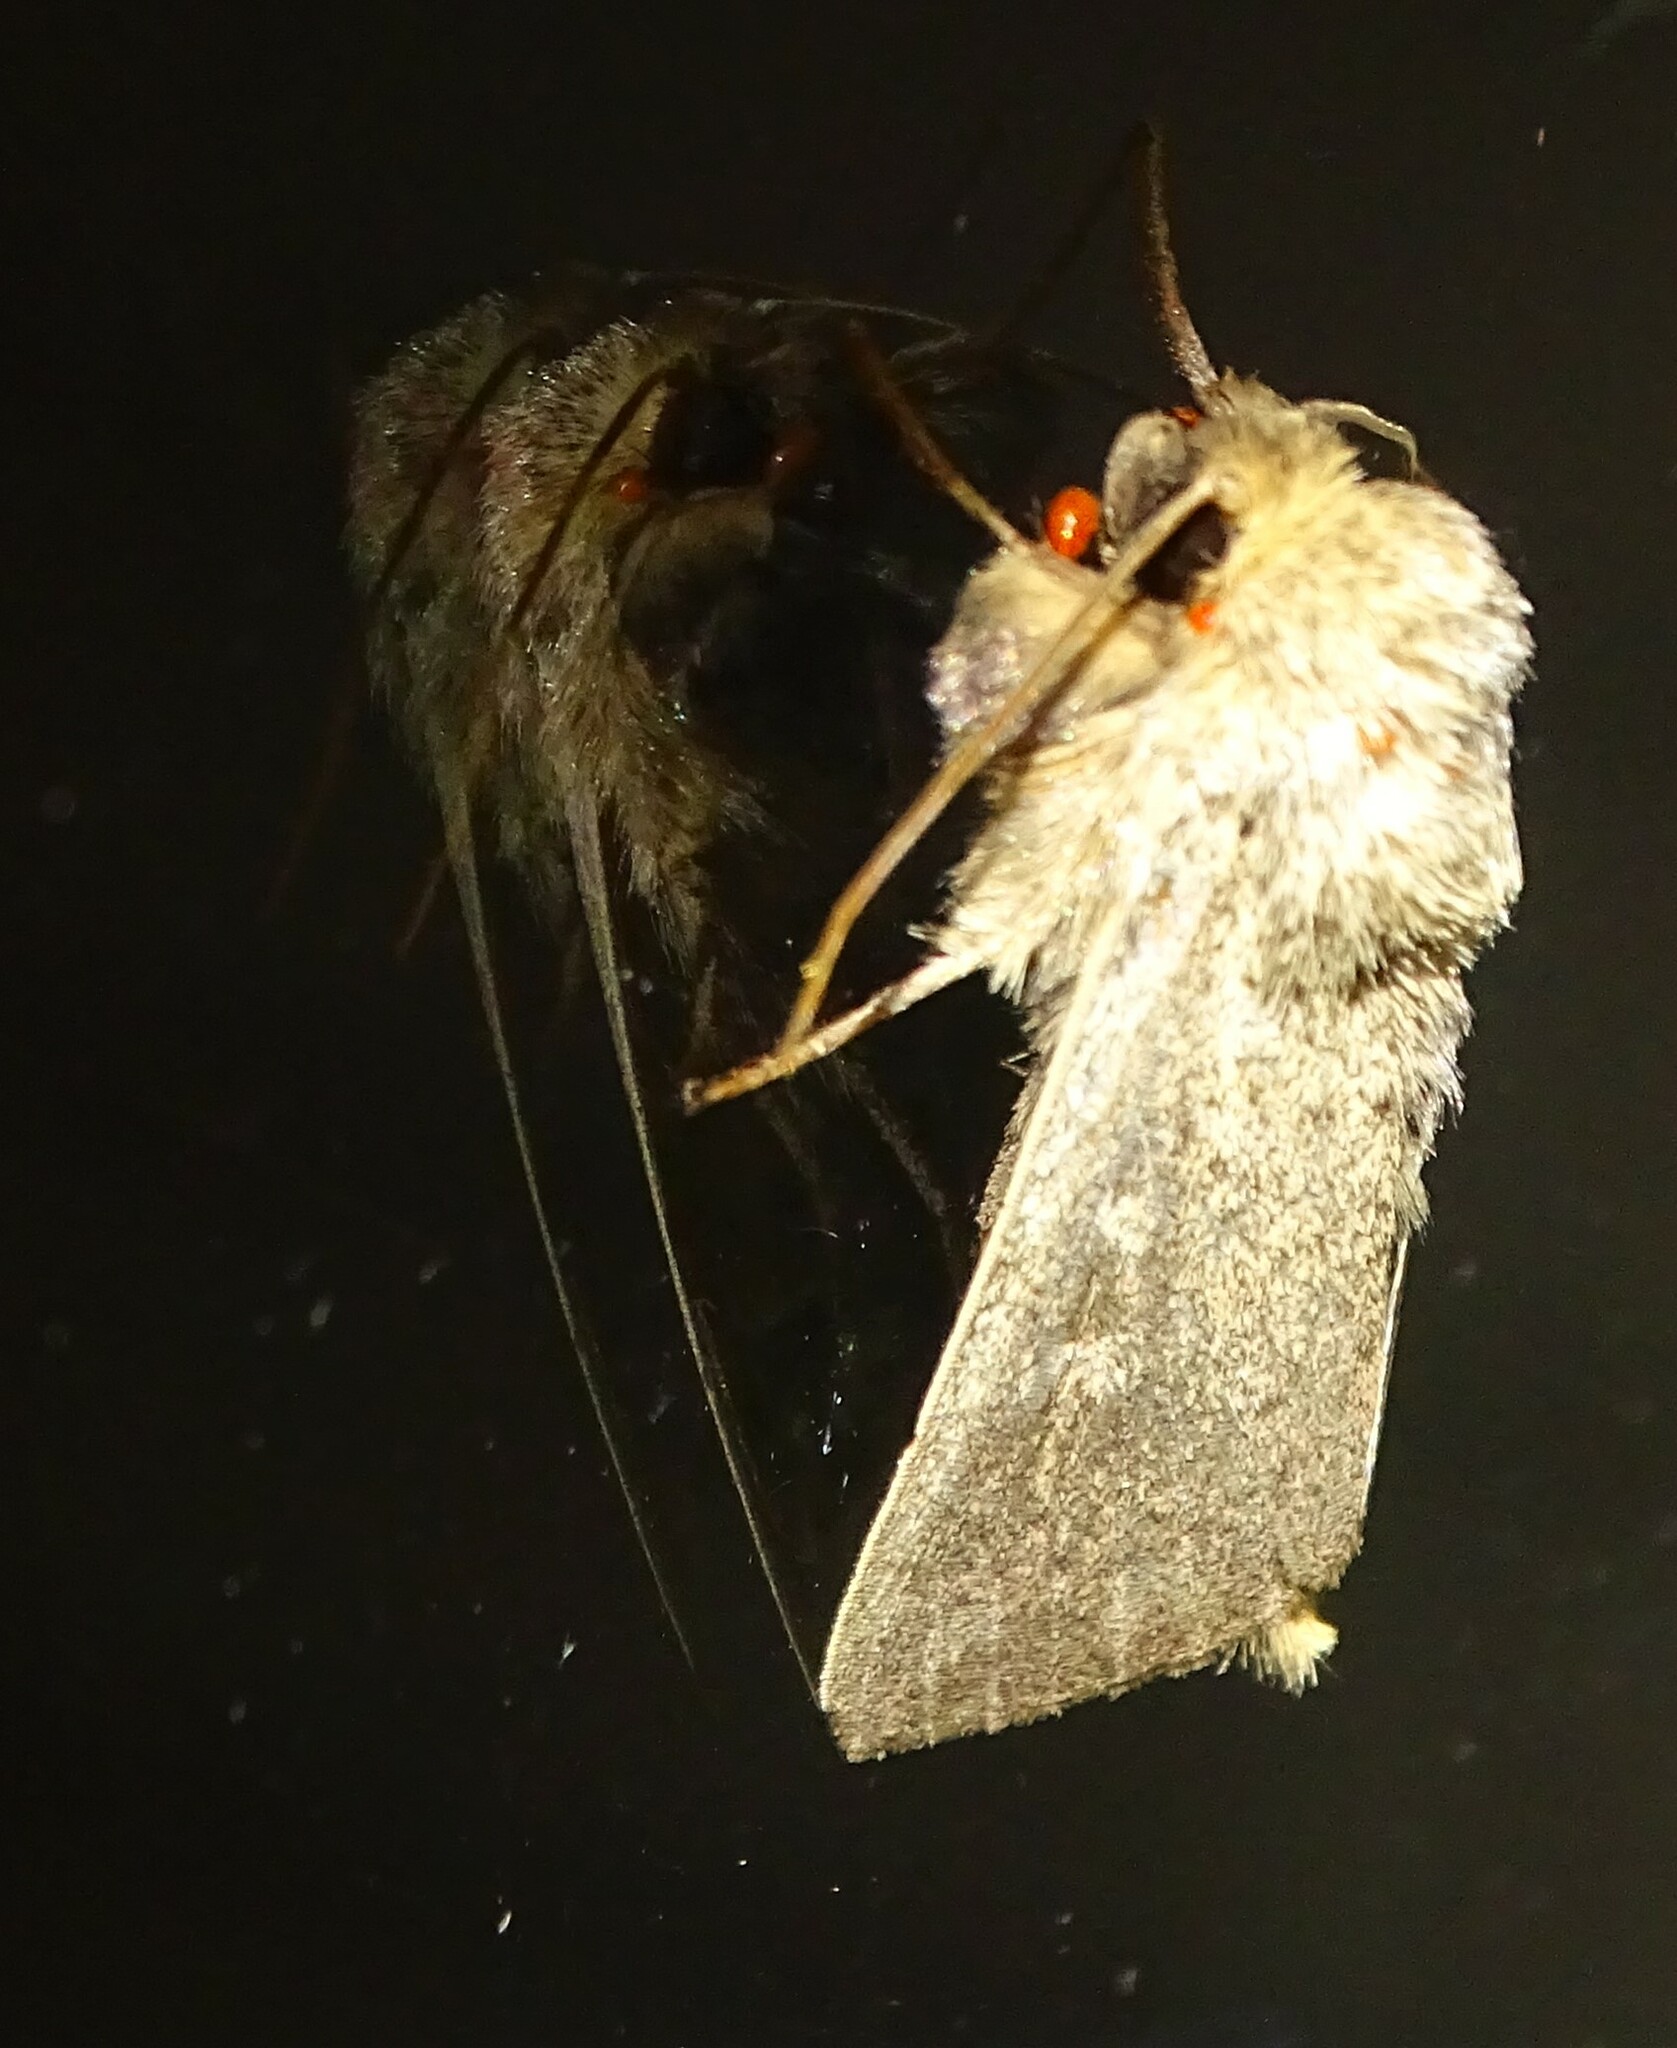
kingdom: Animalia
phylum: Arthropoda
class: Insecta
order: Lepidoptera
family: Noctuidae
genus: Leucania
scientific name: Leucania ursula
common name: Ursula wainscot
